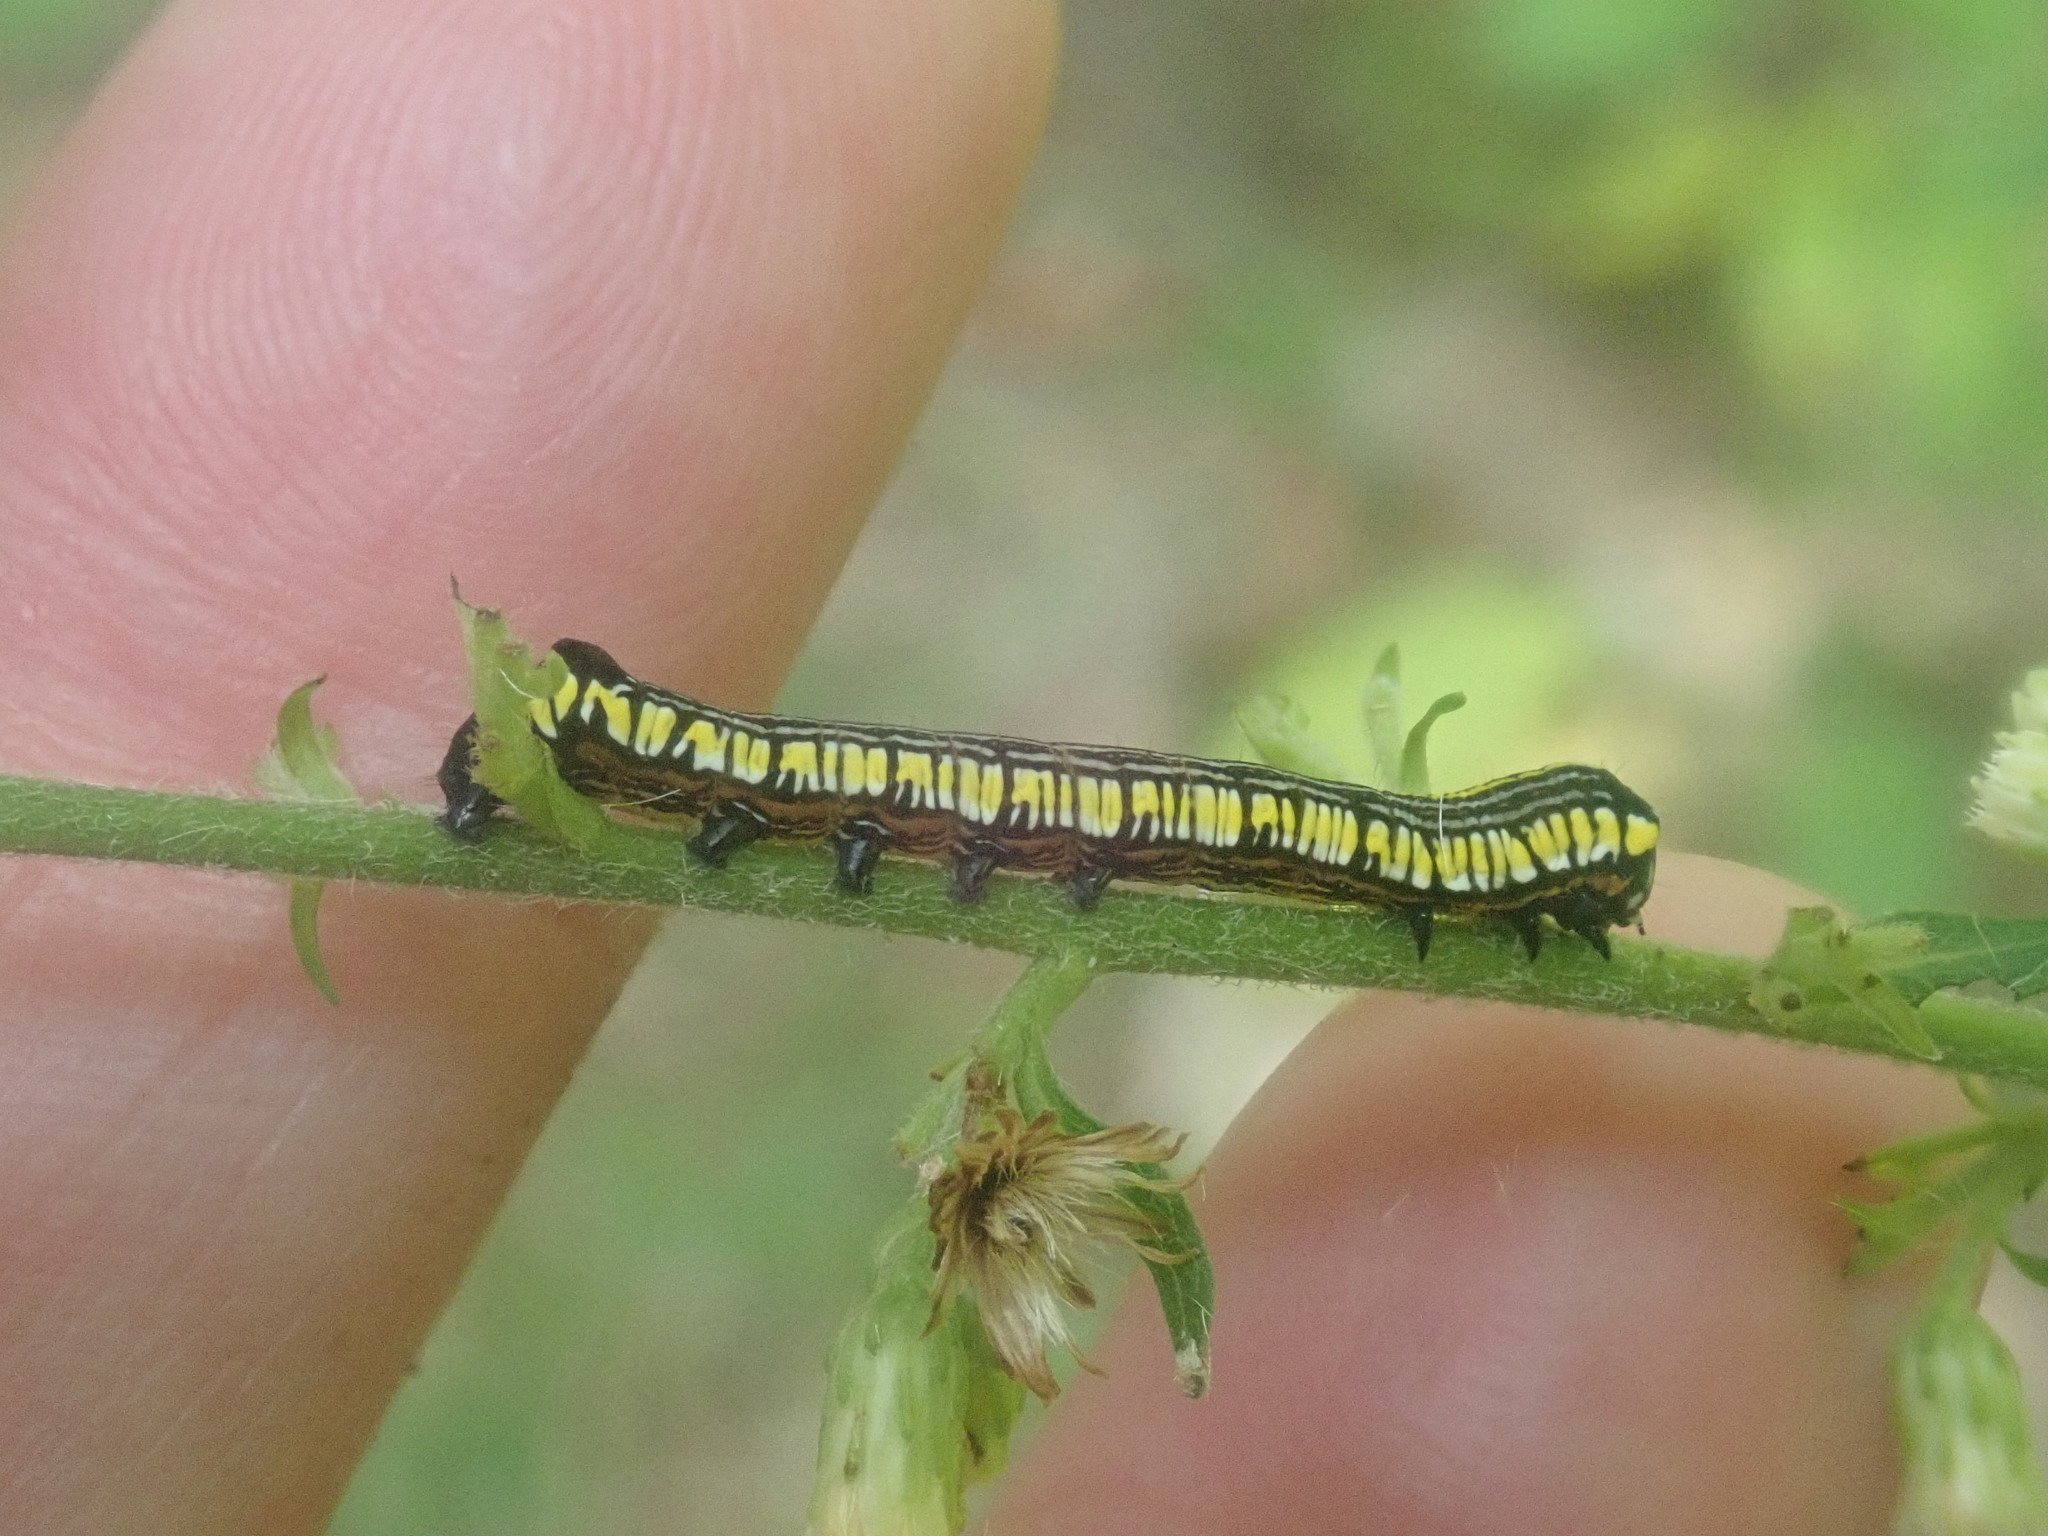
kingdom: Animalia
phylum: Arthropoda
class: Insecta
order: Lepidoptera
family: Noctuidae
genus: Cucullia
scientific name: Cucullia convexipennis
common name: Brown-hooded owlet
